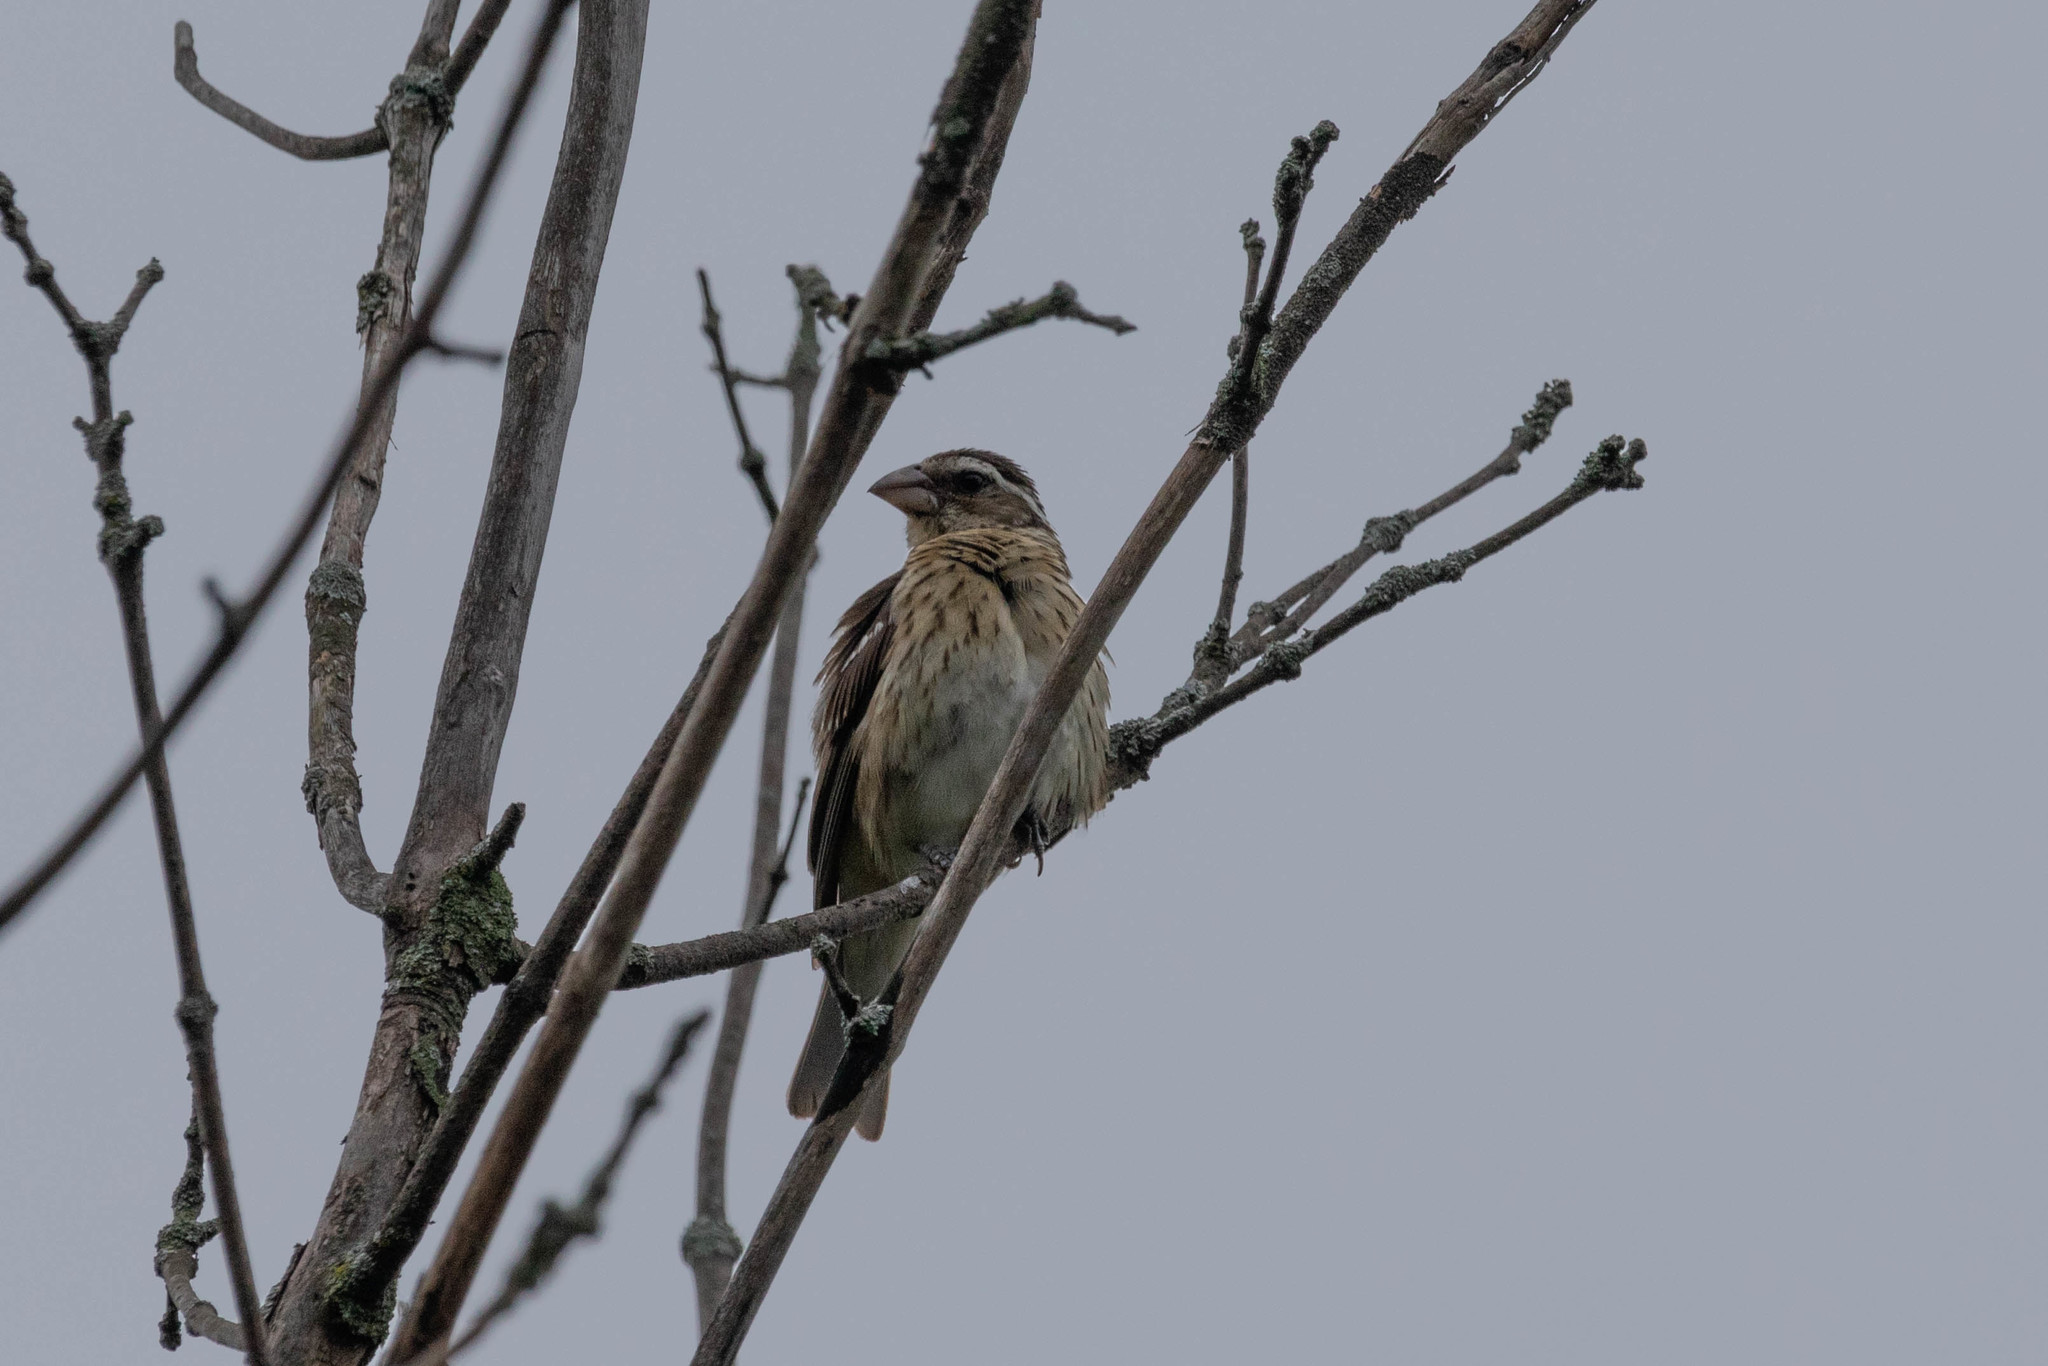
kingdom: Animalia
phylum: Chordata
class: Aves
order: Passeriformes
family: Cardinalidae
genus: Pheucticus
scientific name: Pheucticus ludovicianus
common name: Rose-breasted grosbeak
